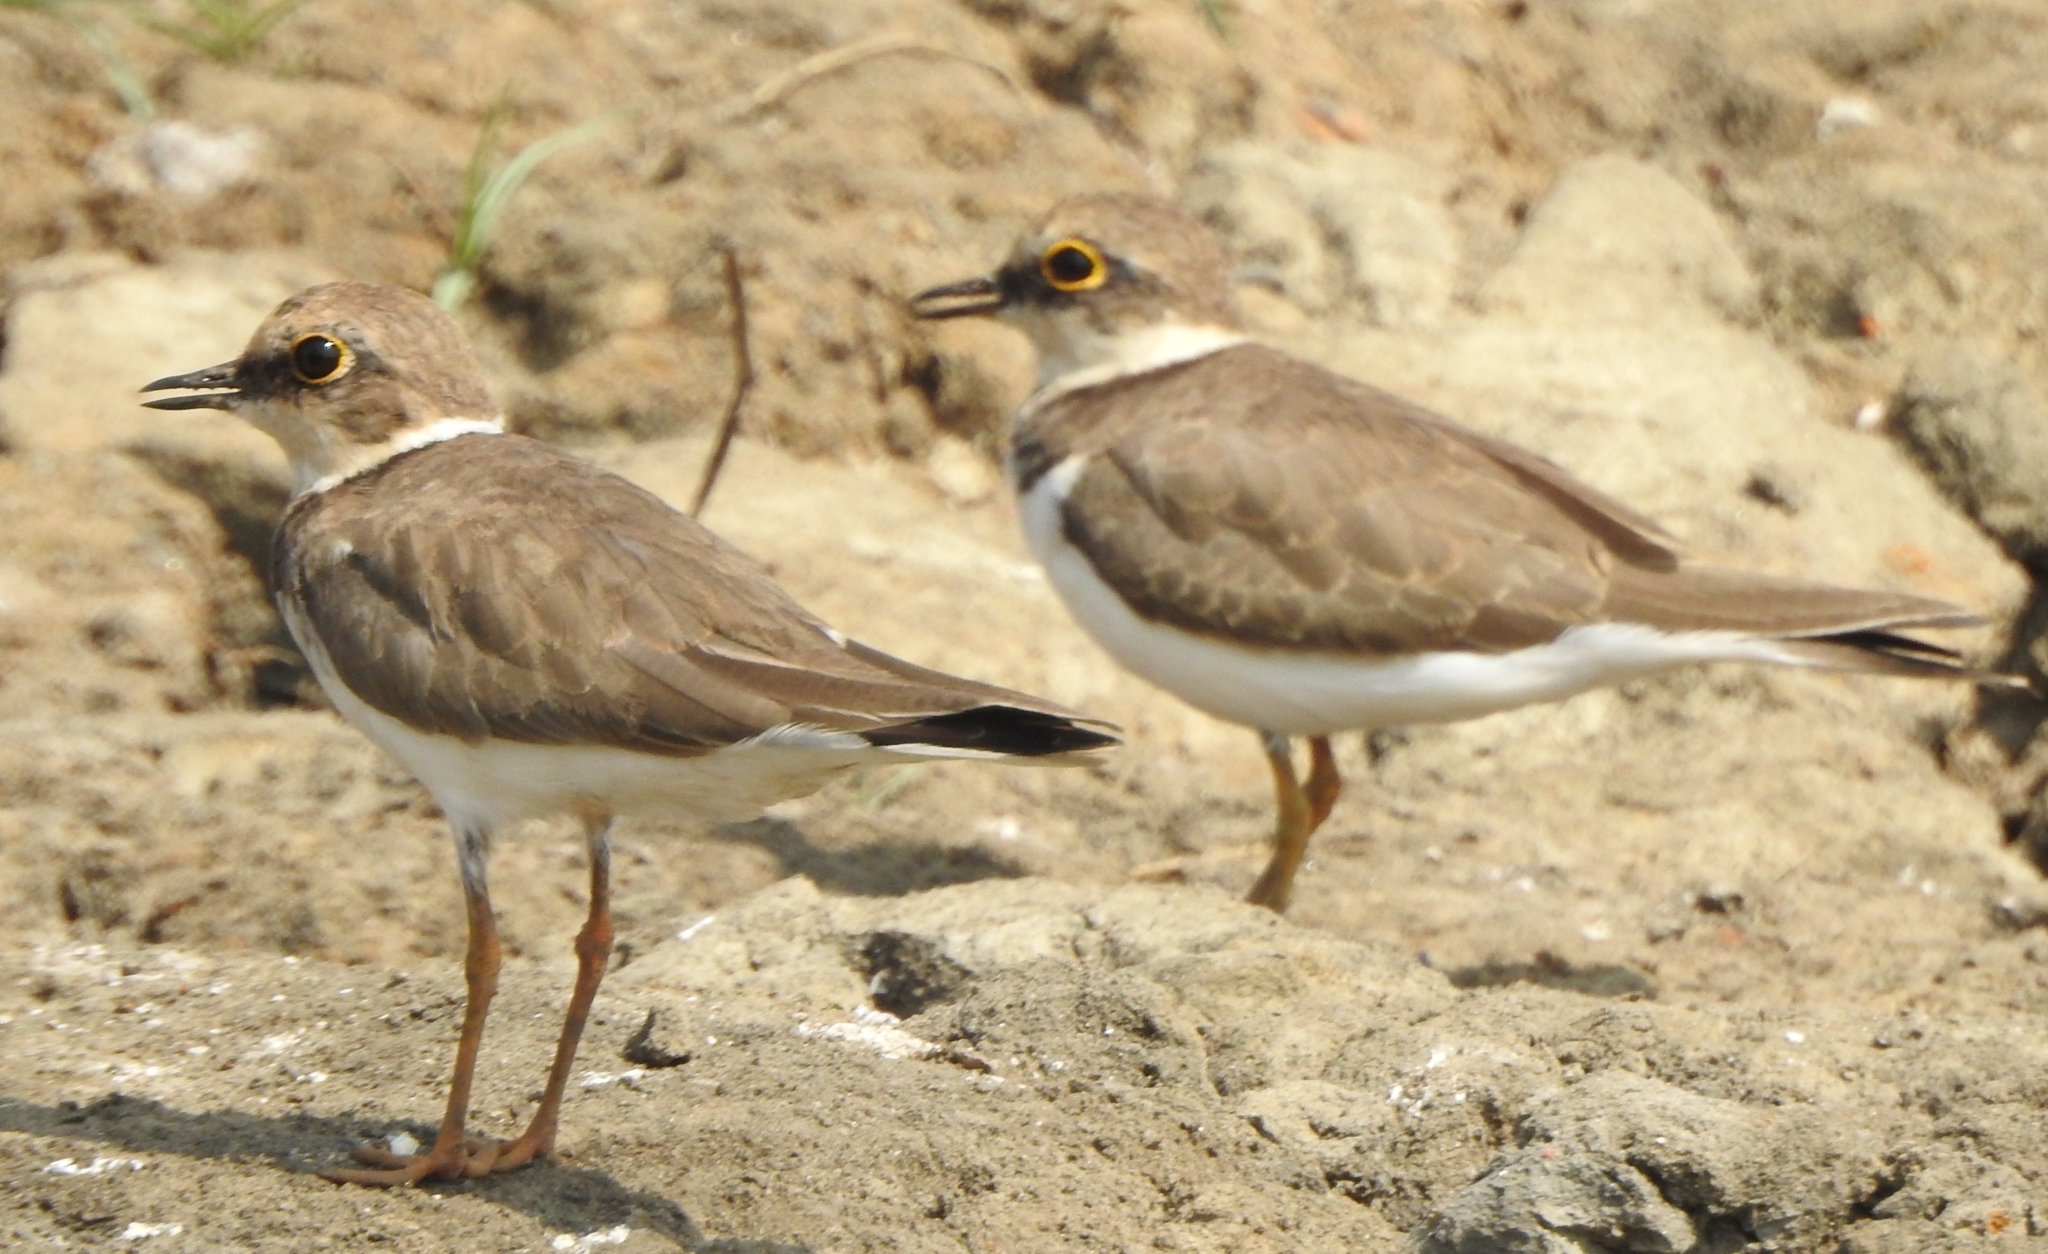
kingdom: Animalia
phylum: Chordata
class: Aves
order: Charadriiformes
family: Charadriidae
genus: Charadrius
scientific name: Charadrius dubius
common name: Little ringed plover
